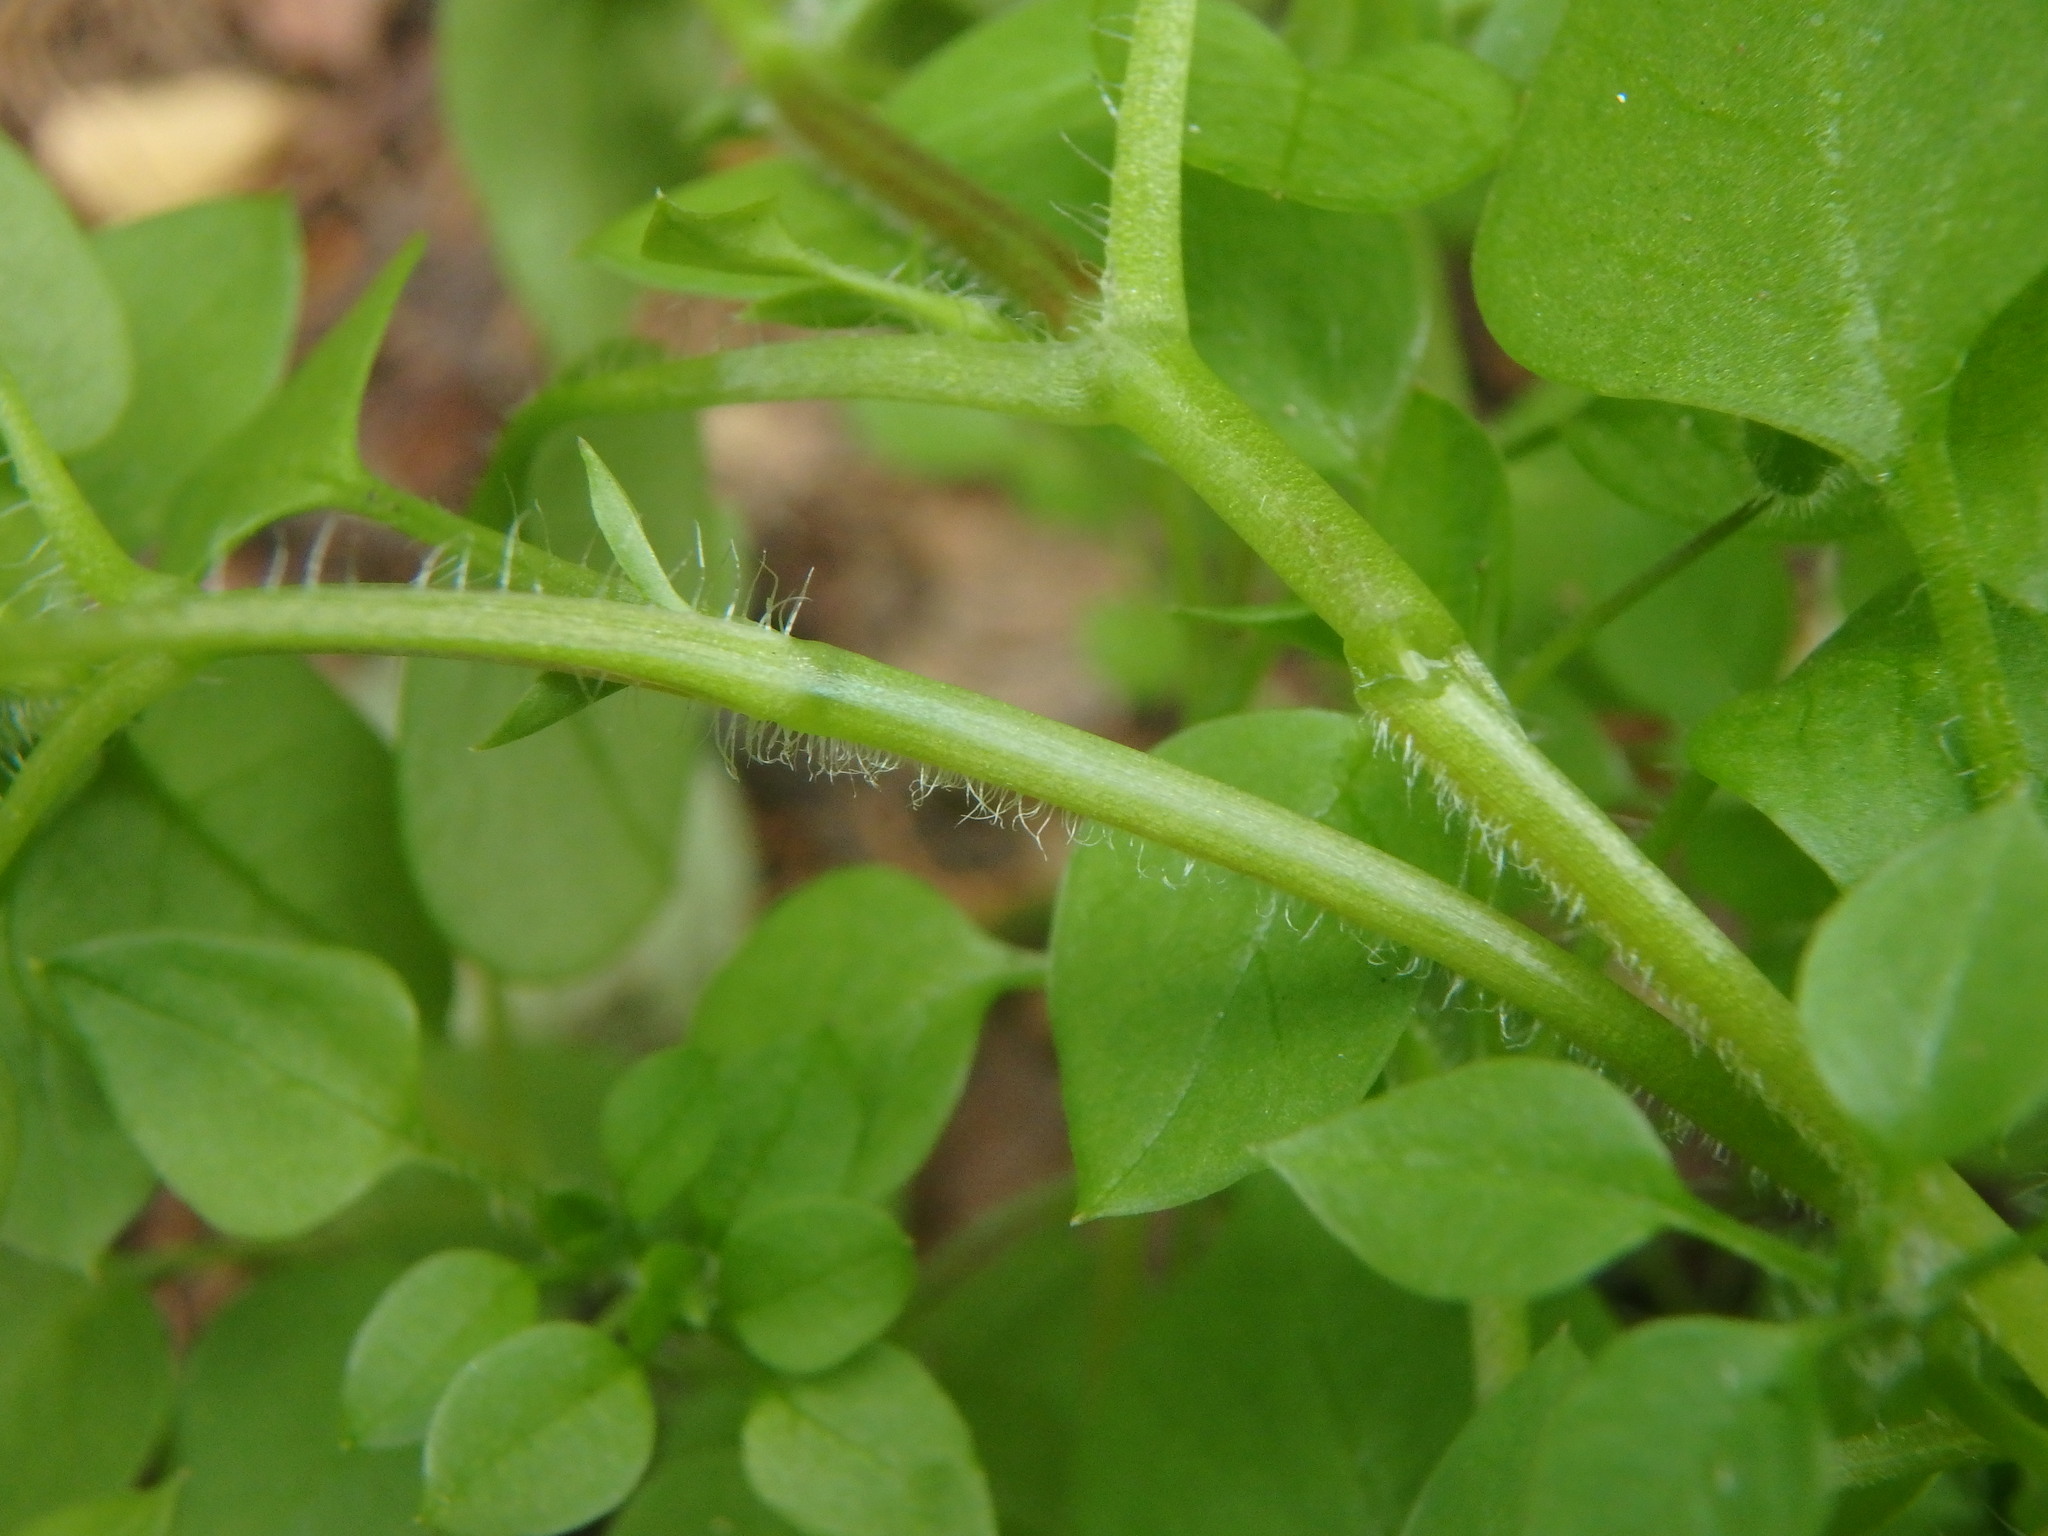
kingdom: Plantae
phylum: Tracheophyta
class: Magnoliopsida
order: Caryophyllales
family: Caryophyllaceae
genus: Stellaria
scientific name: Stellaria media
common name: Common chickweed
